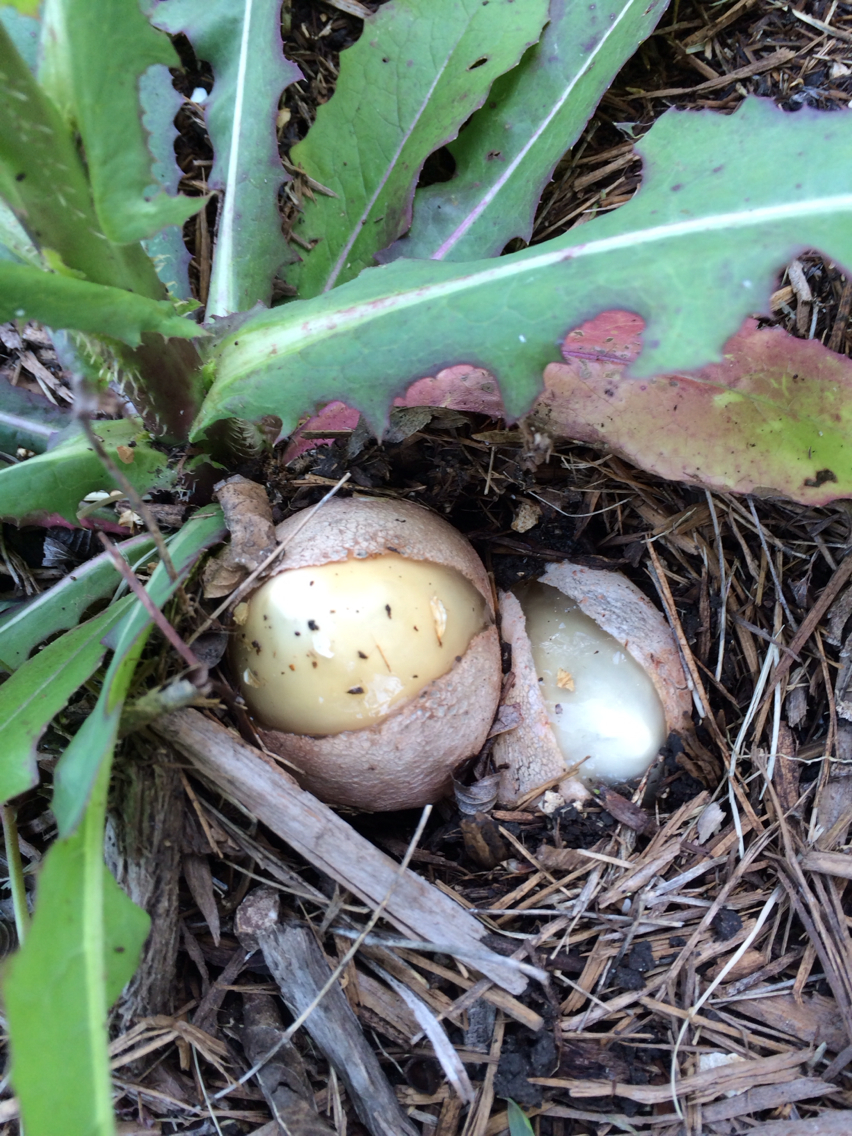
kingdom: Fungi
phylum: Basidiomycota
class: Agaricomycetes
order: Phallales
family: Phallaceae
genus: Phallus
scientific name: Phallus hadriani
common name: Sand stinkhorn
